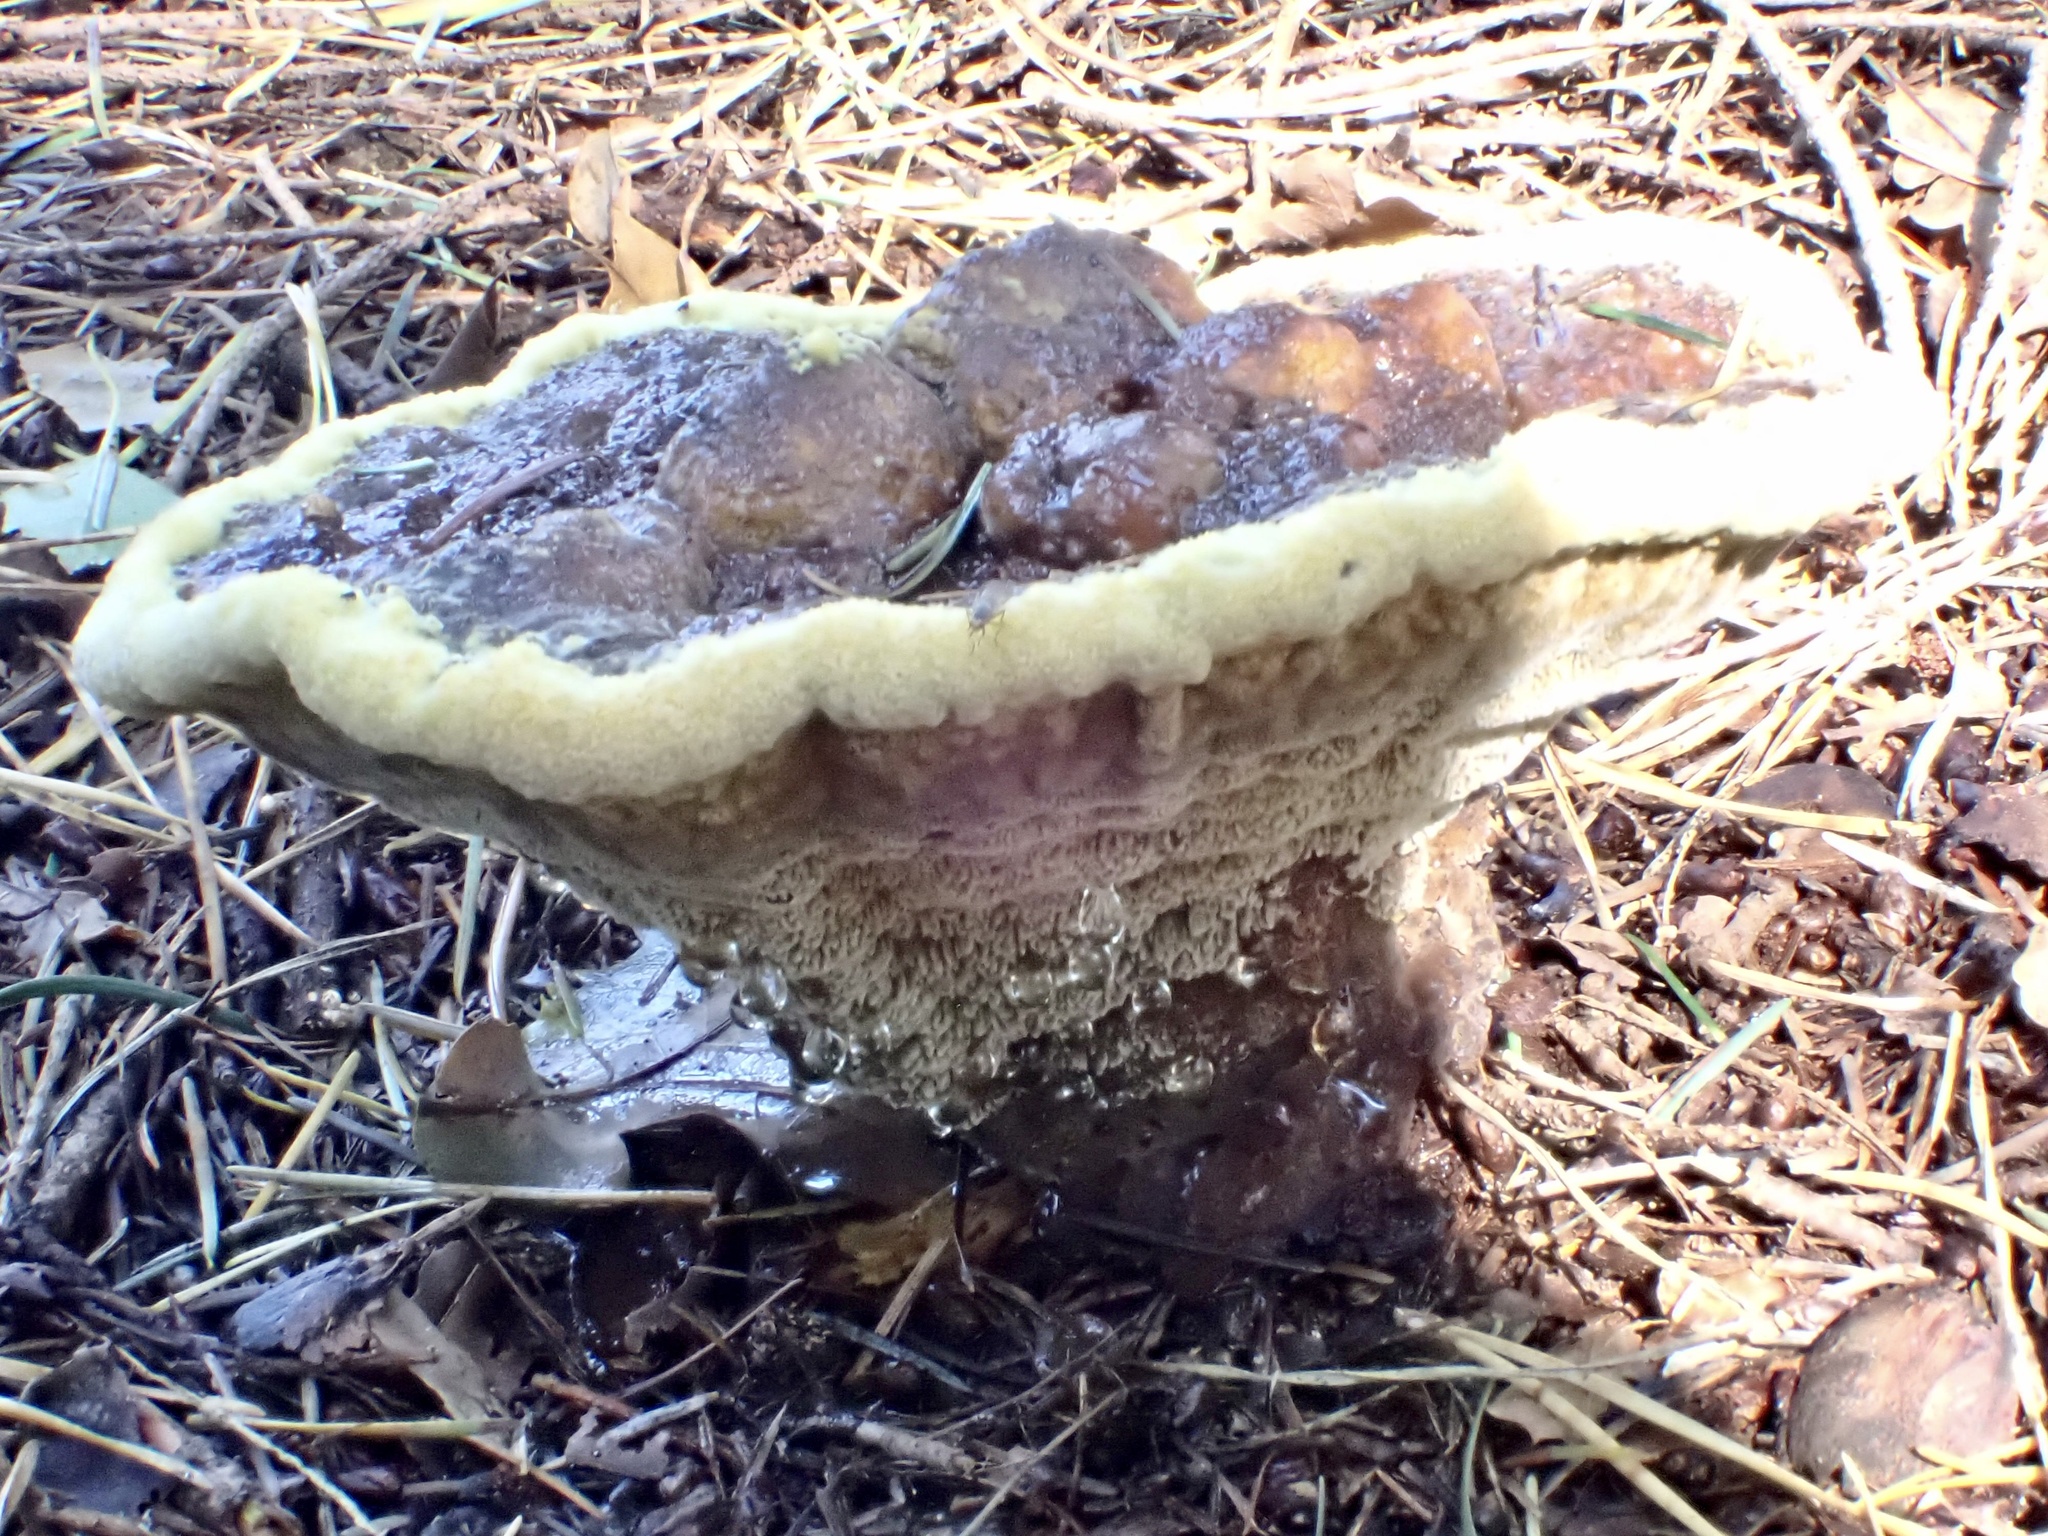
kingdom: Fungi
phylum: Basidiomycota
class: Agaricomycetes
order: Polyporales
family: Laetiporaceae
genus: Phaeolus
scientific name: Phaeolus schweinitzii
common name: Dyer's mazegill
